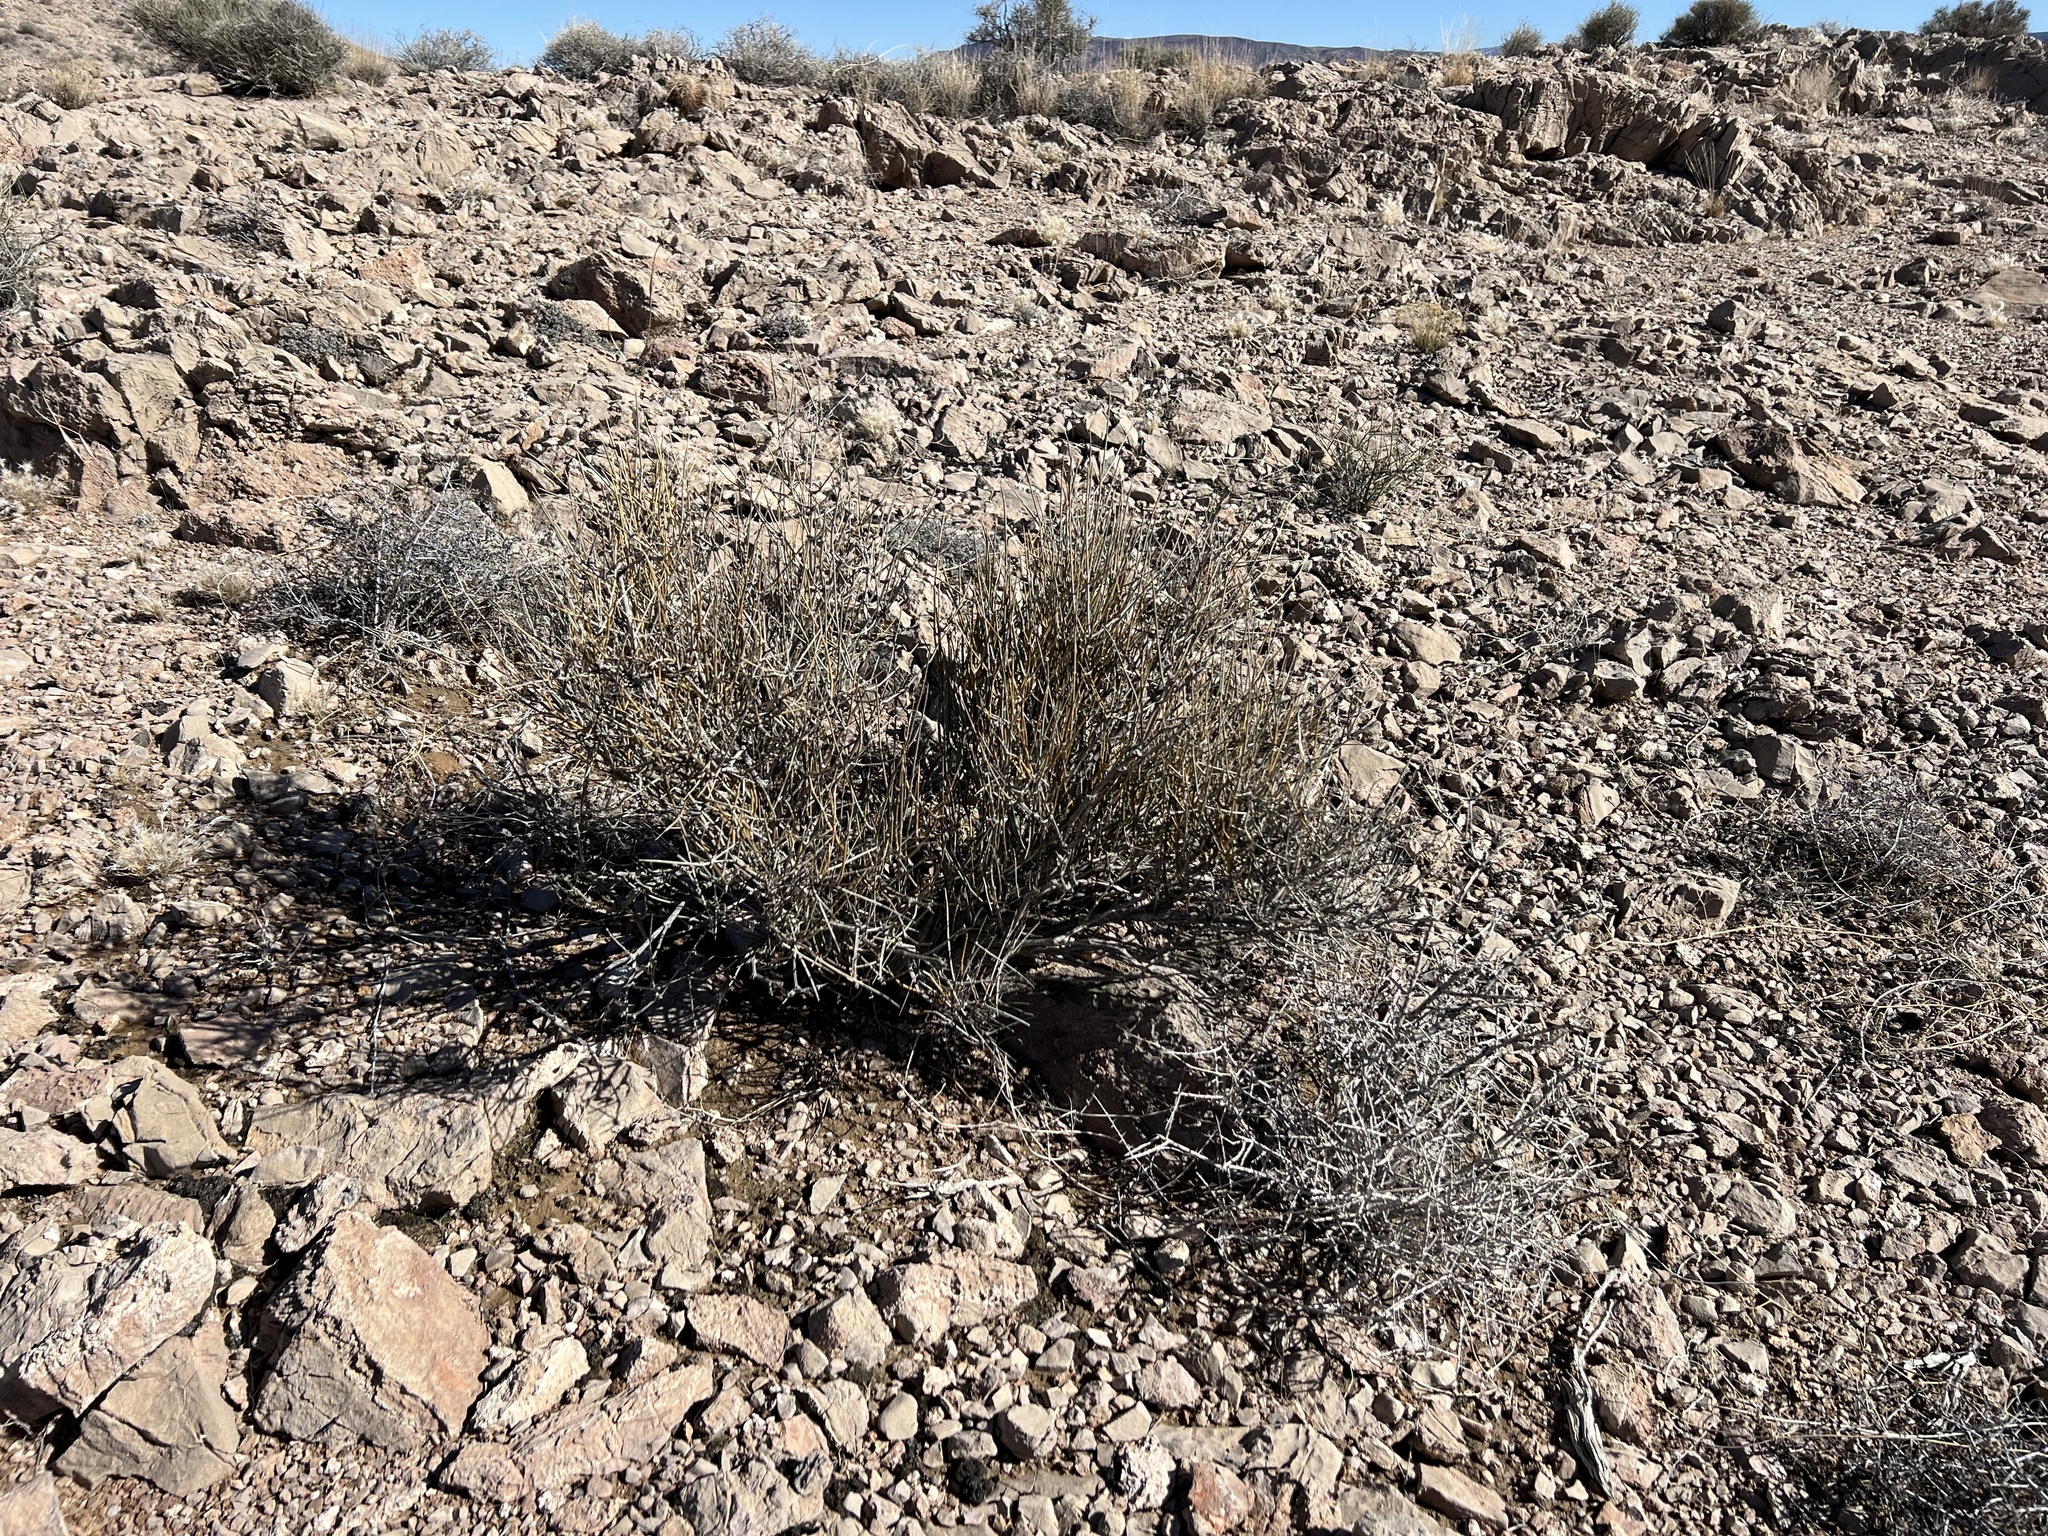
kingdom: Plantae
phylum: Tracheophyta
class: Gnetopsida
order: Ephedrales
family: Ephedraceae
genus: Ephedra
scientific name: Ephedra nevadensis
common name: Gray ephedra
